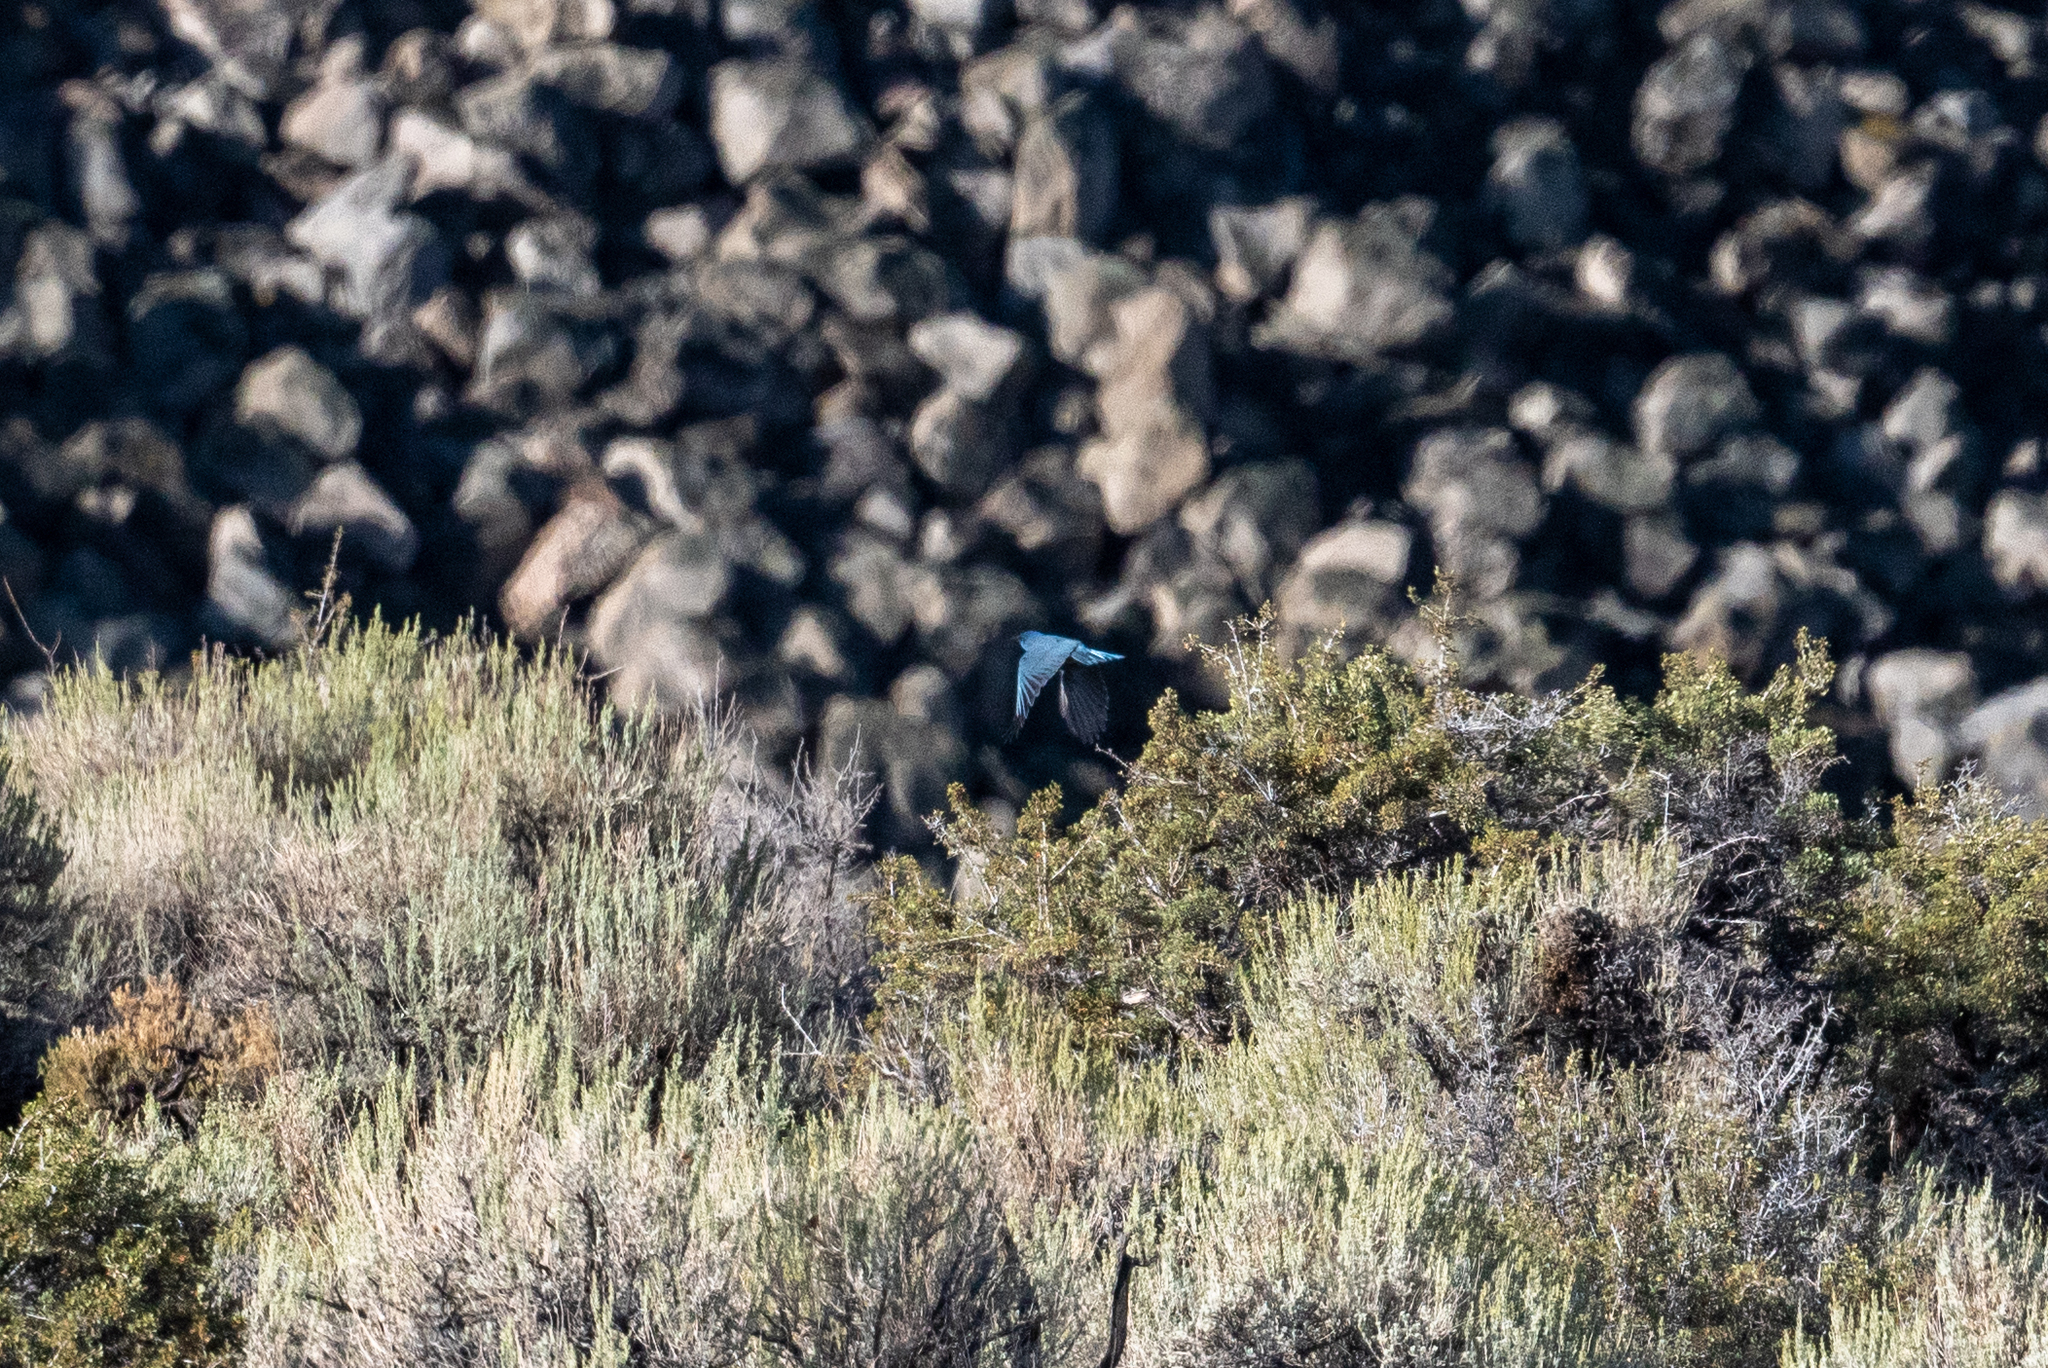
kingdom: Animalia
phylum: Chordata
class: Aves
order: Passeriformes
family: Corvidae
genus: Gymnorhinus
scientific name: Gymnorhinus cyanocephalus
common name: Pinyon jay
